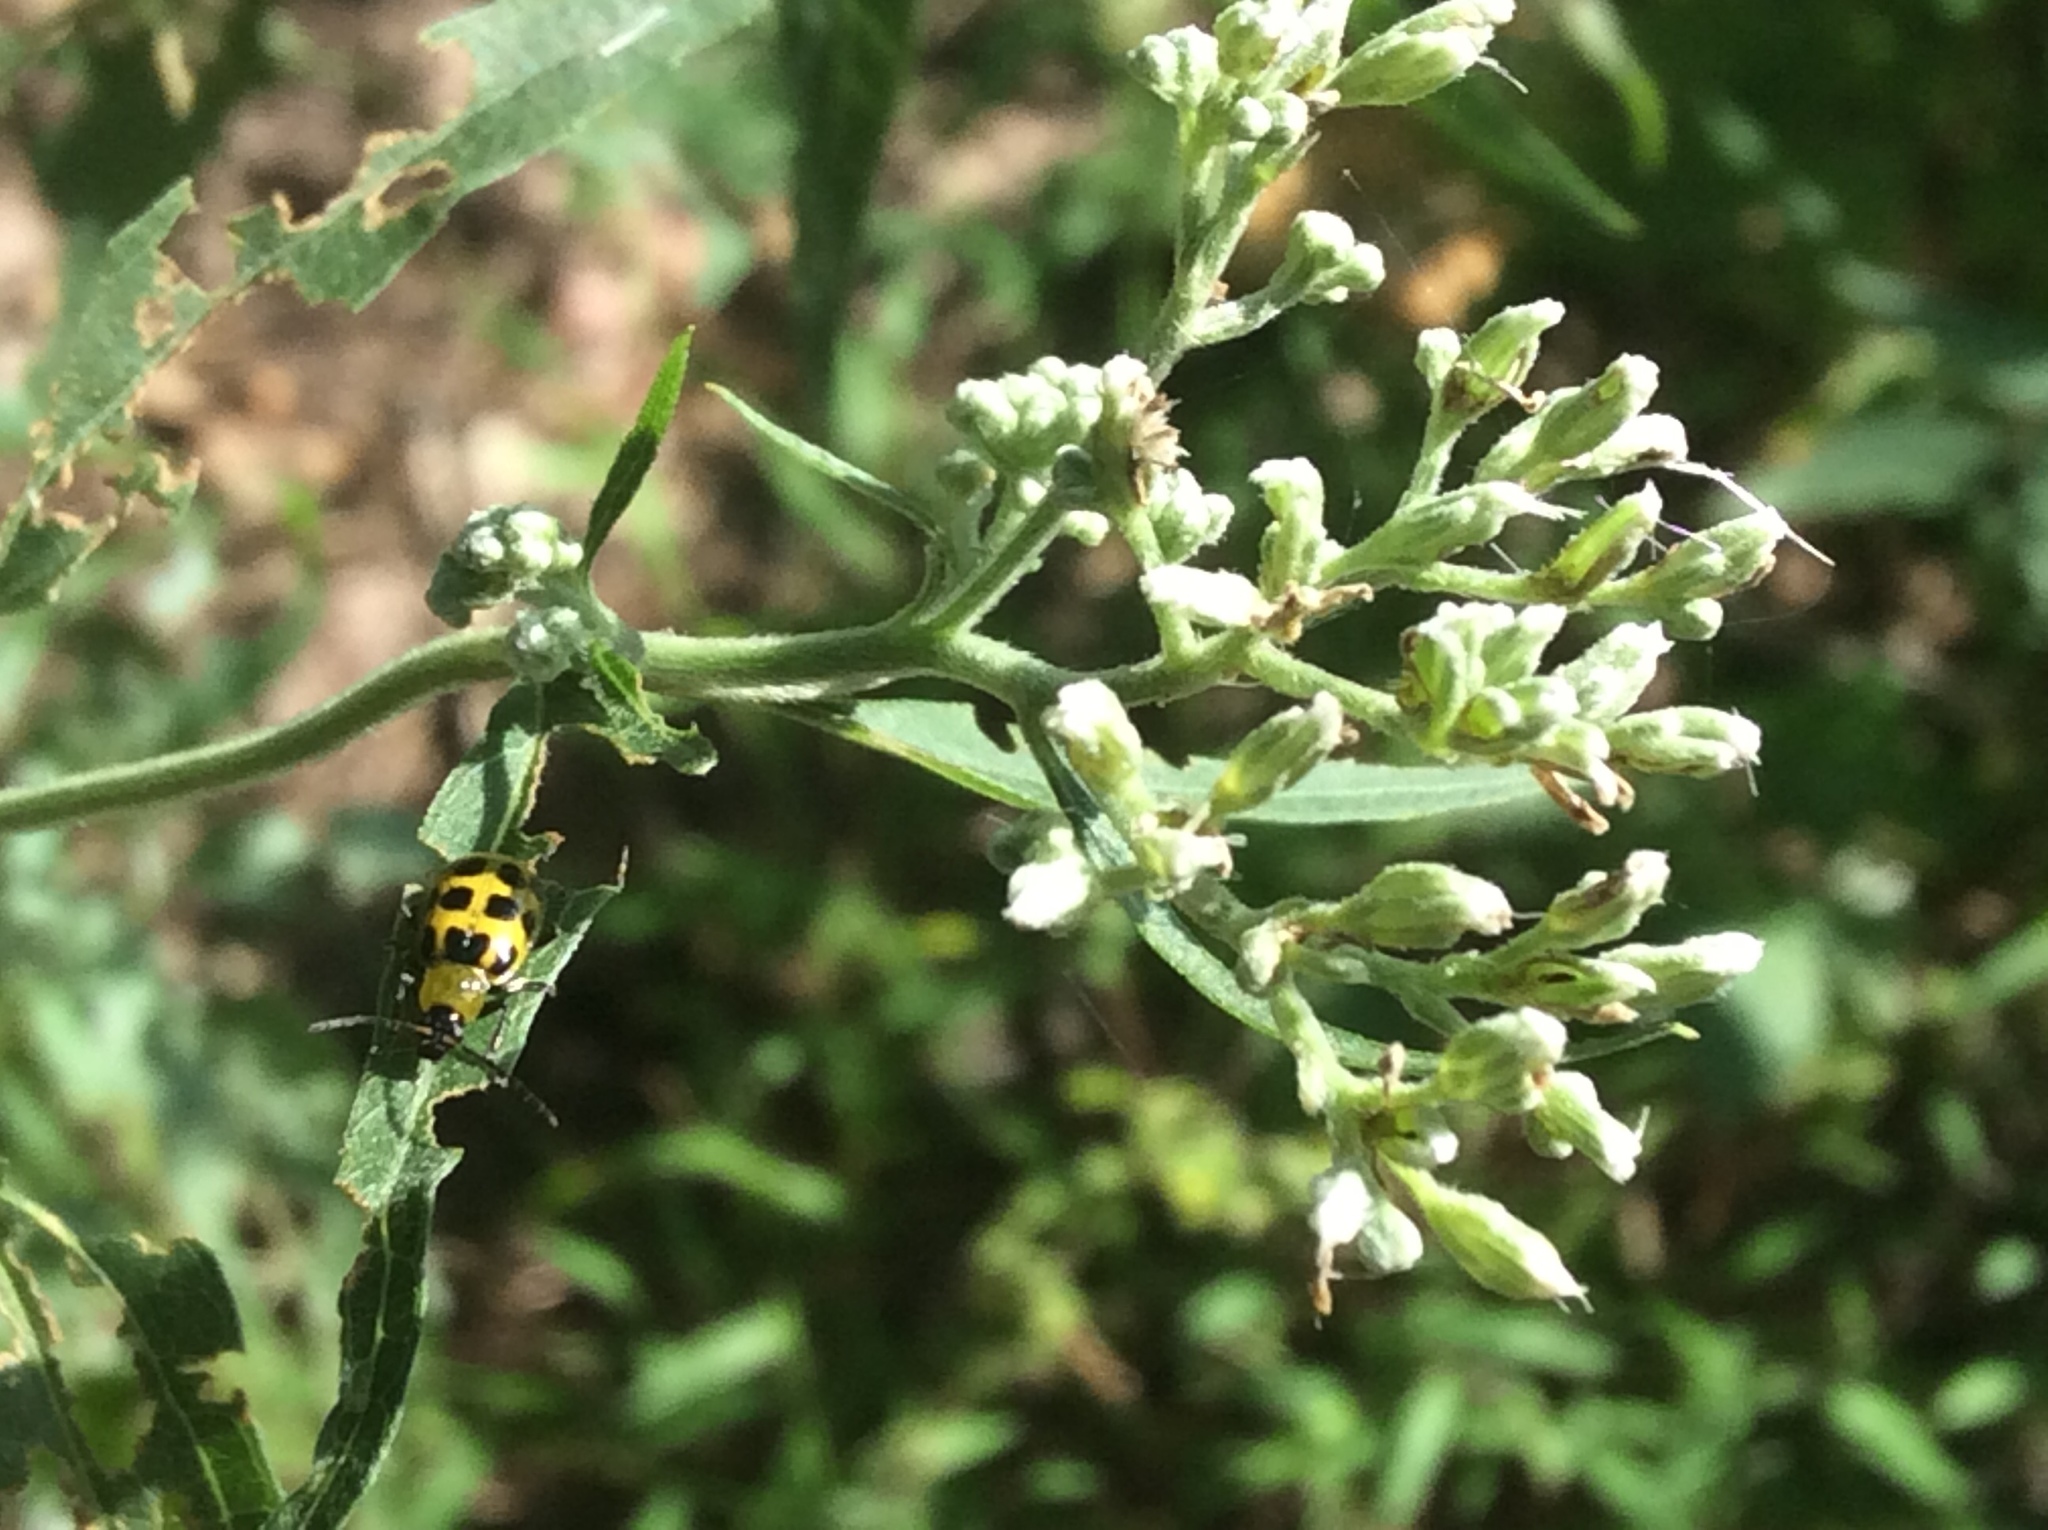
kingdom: Animalia
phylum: Arthropoda
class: Insecta
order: Coleoptera
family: Chrysomelidae
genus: Diabrotica
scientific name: Diabrotica undecimpunctata
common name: Spotted cucumber beetle
